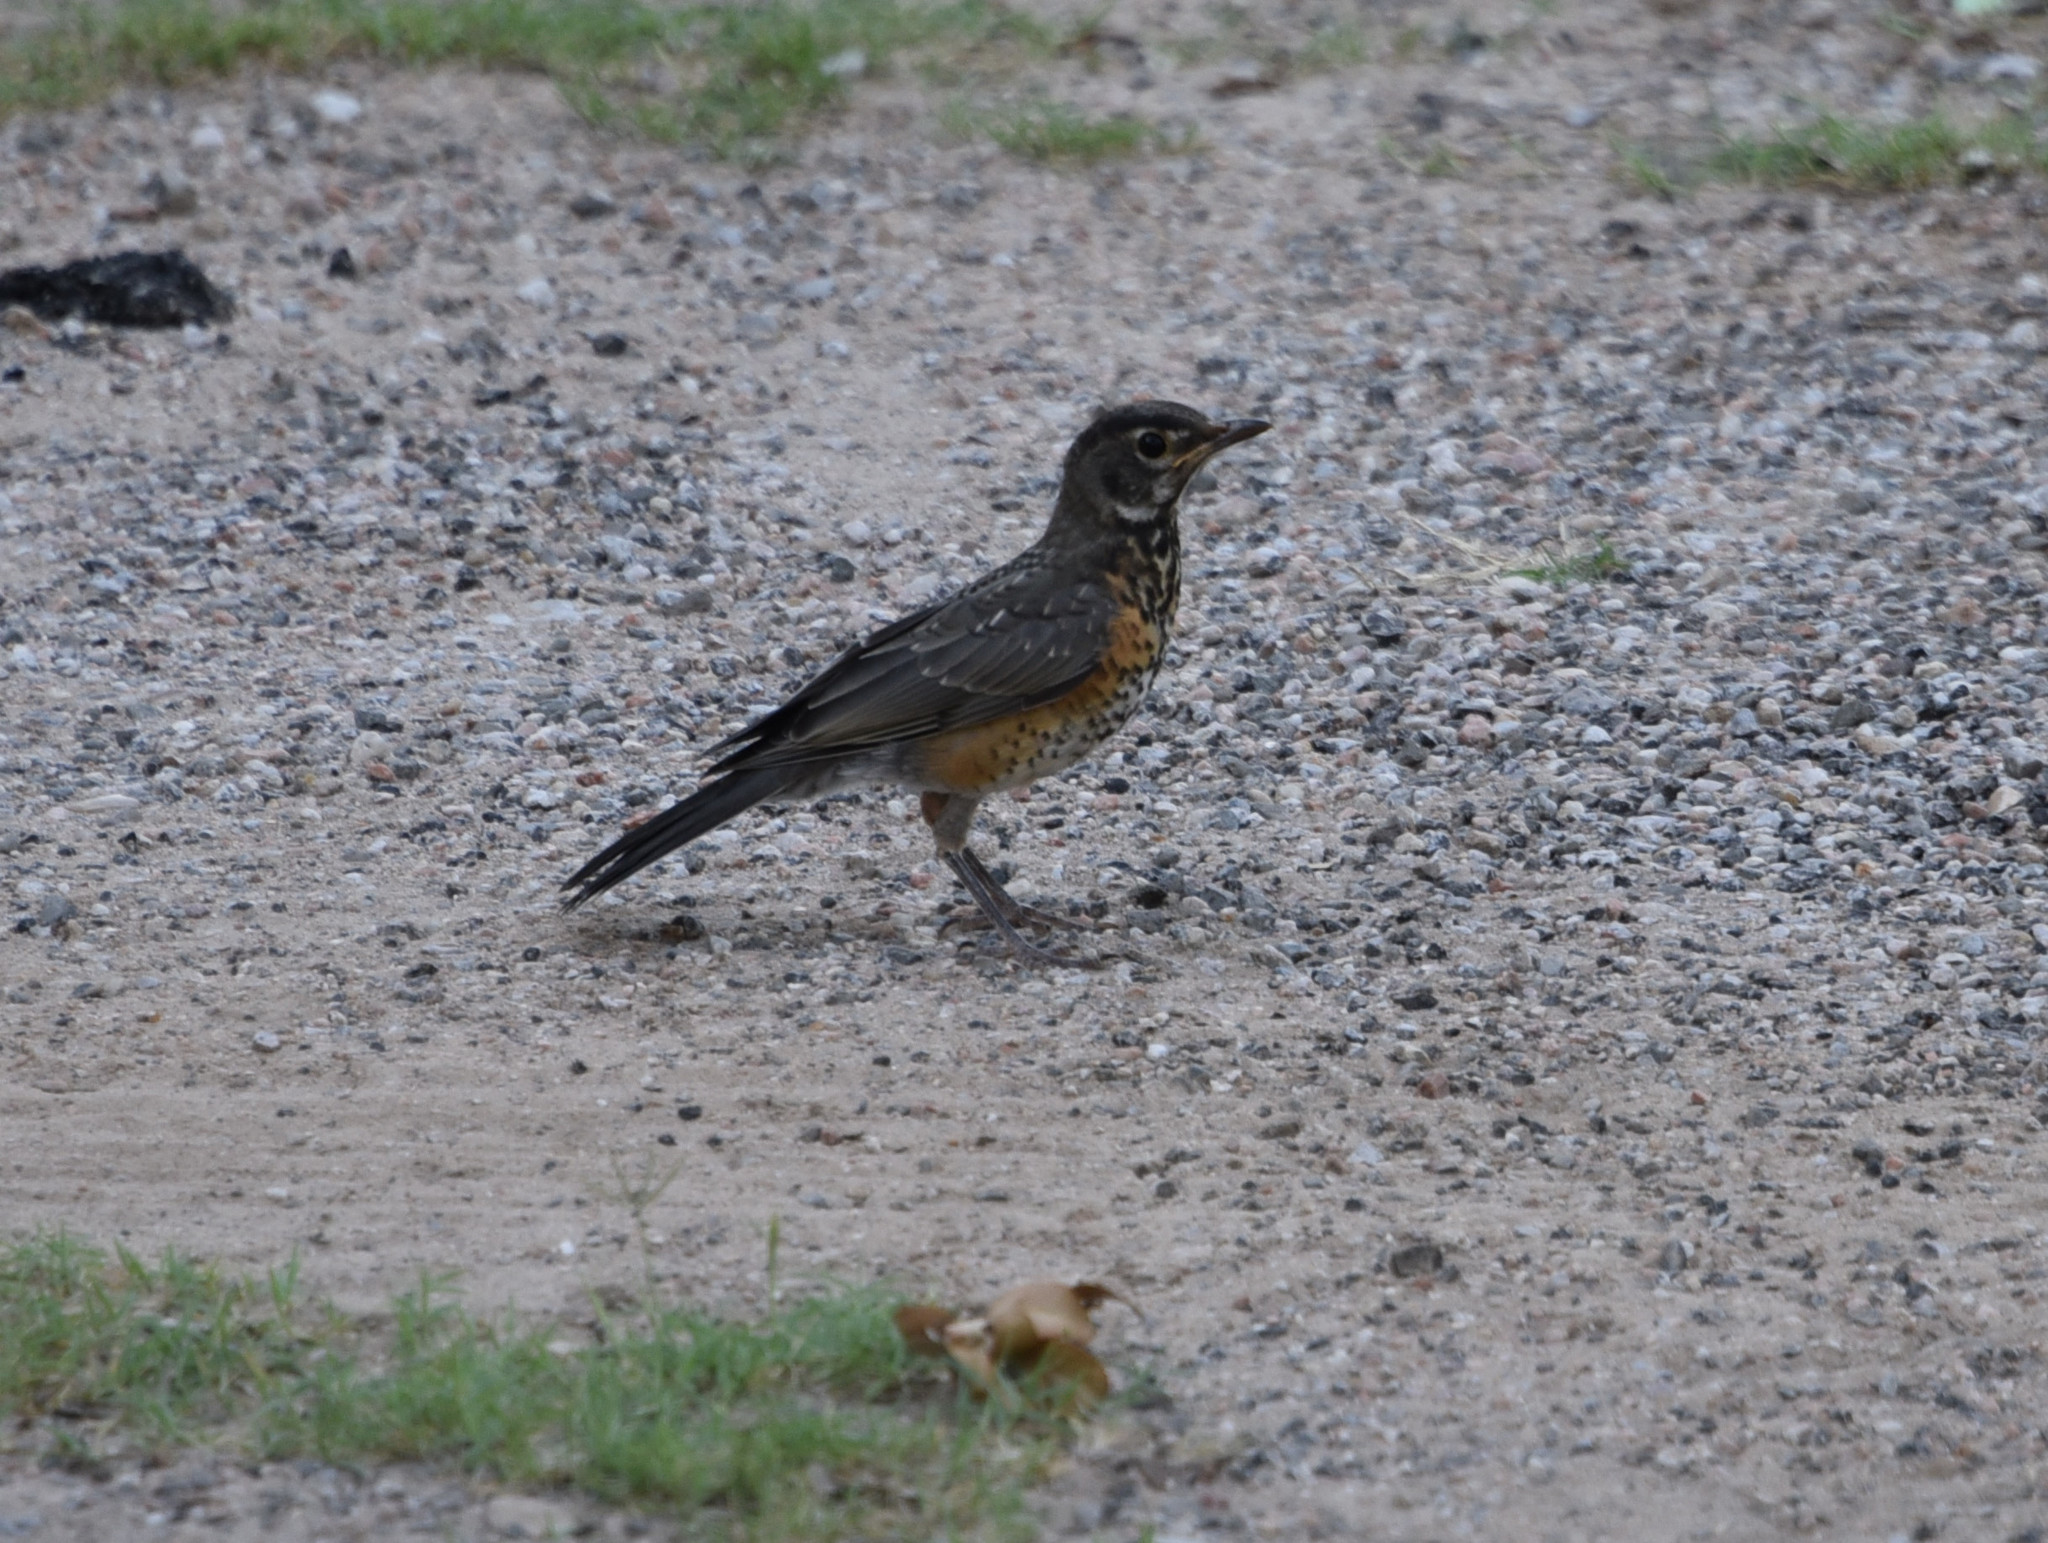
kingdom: Animalia
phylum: Chordata
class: Aves
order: Passeriformes
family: Turdidae
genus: Turdus
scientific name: Turdus migratorius
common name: American robin
